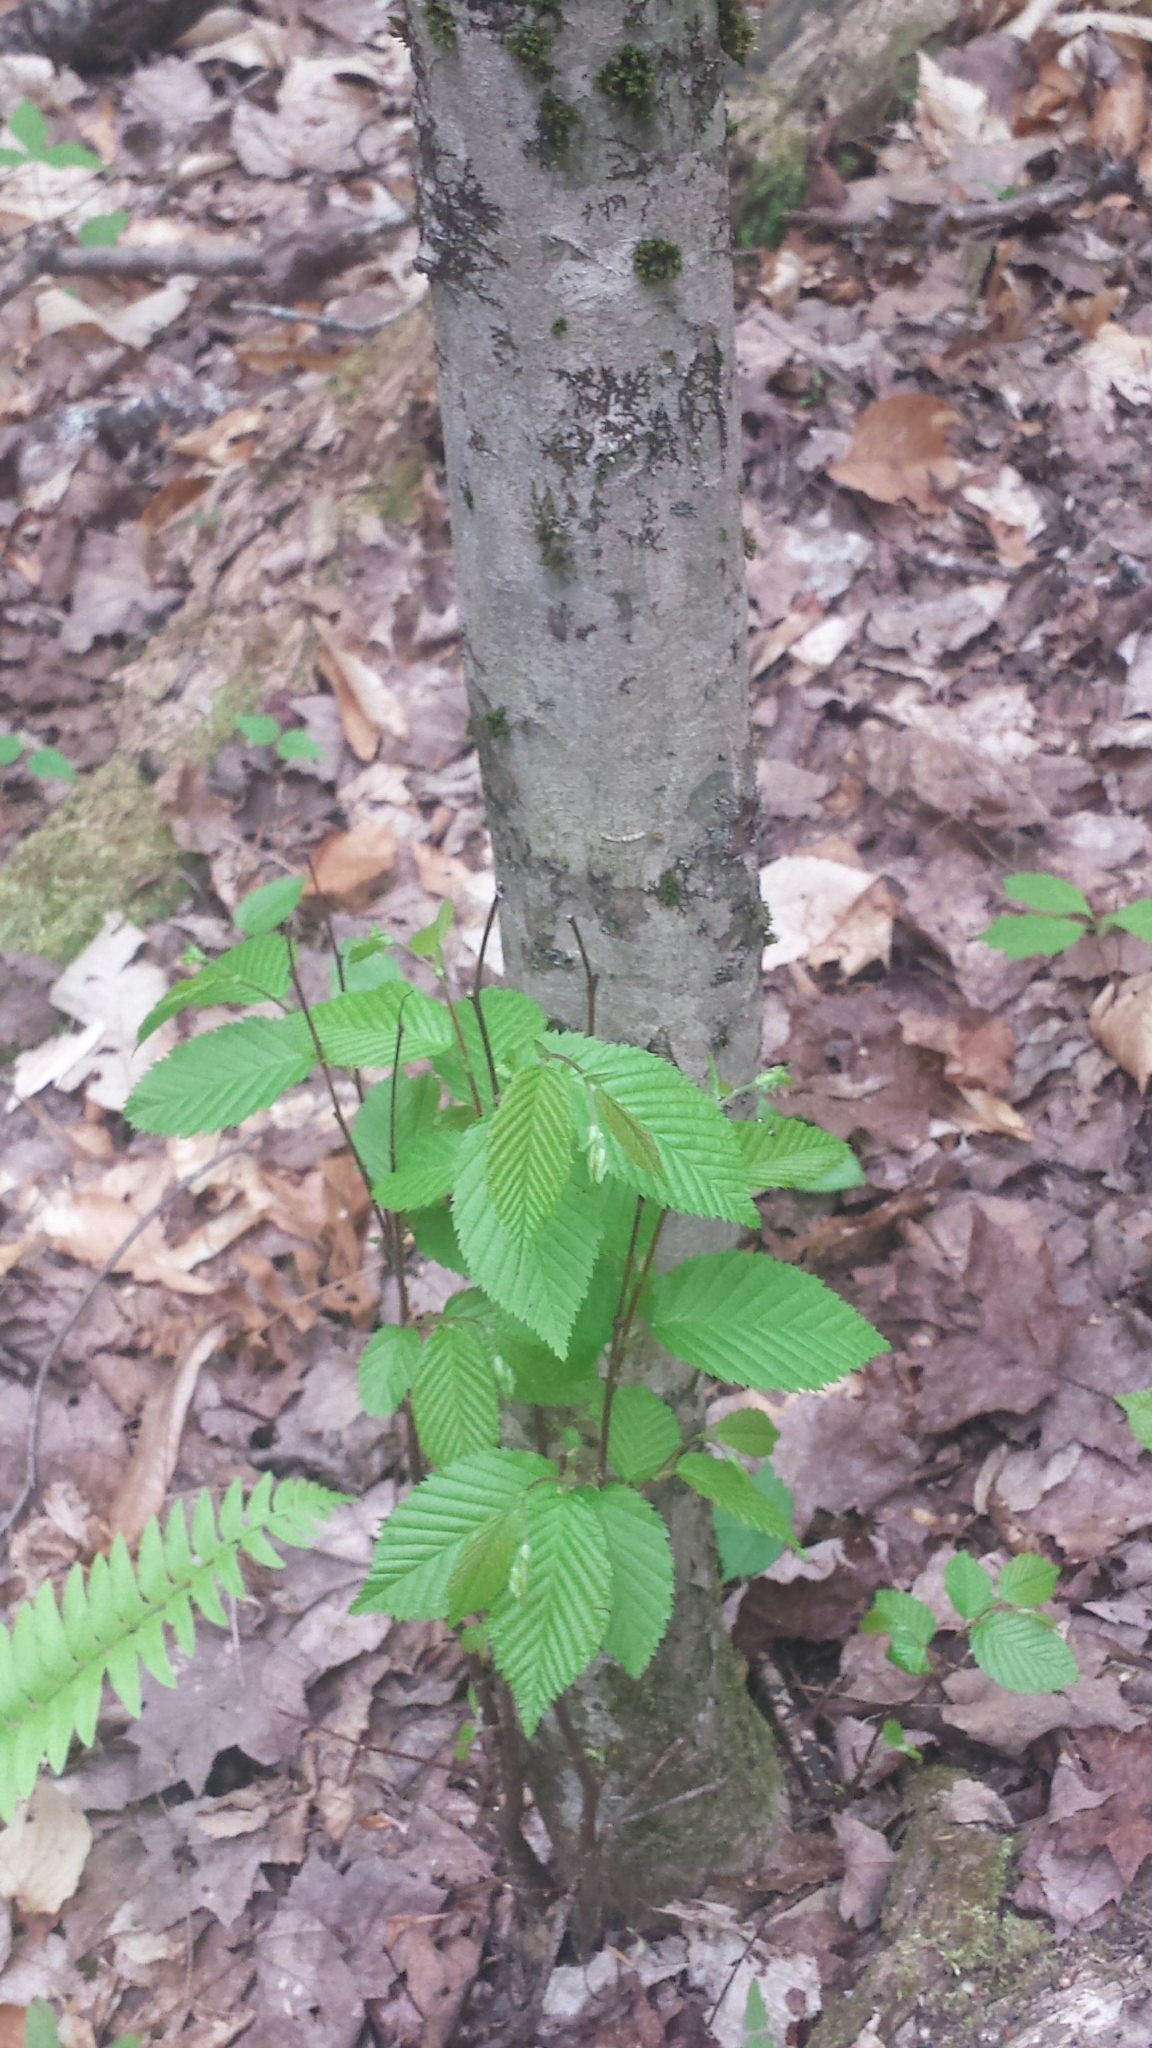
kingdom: Plantae
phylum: Tracheophyta
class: Magnoliopsida
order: Fagales
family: Betulaceae
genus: Carpinus
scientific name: Carpinus caroliniana
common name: American hornbeam
